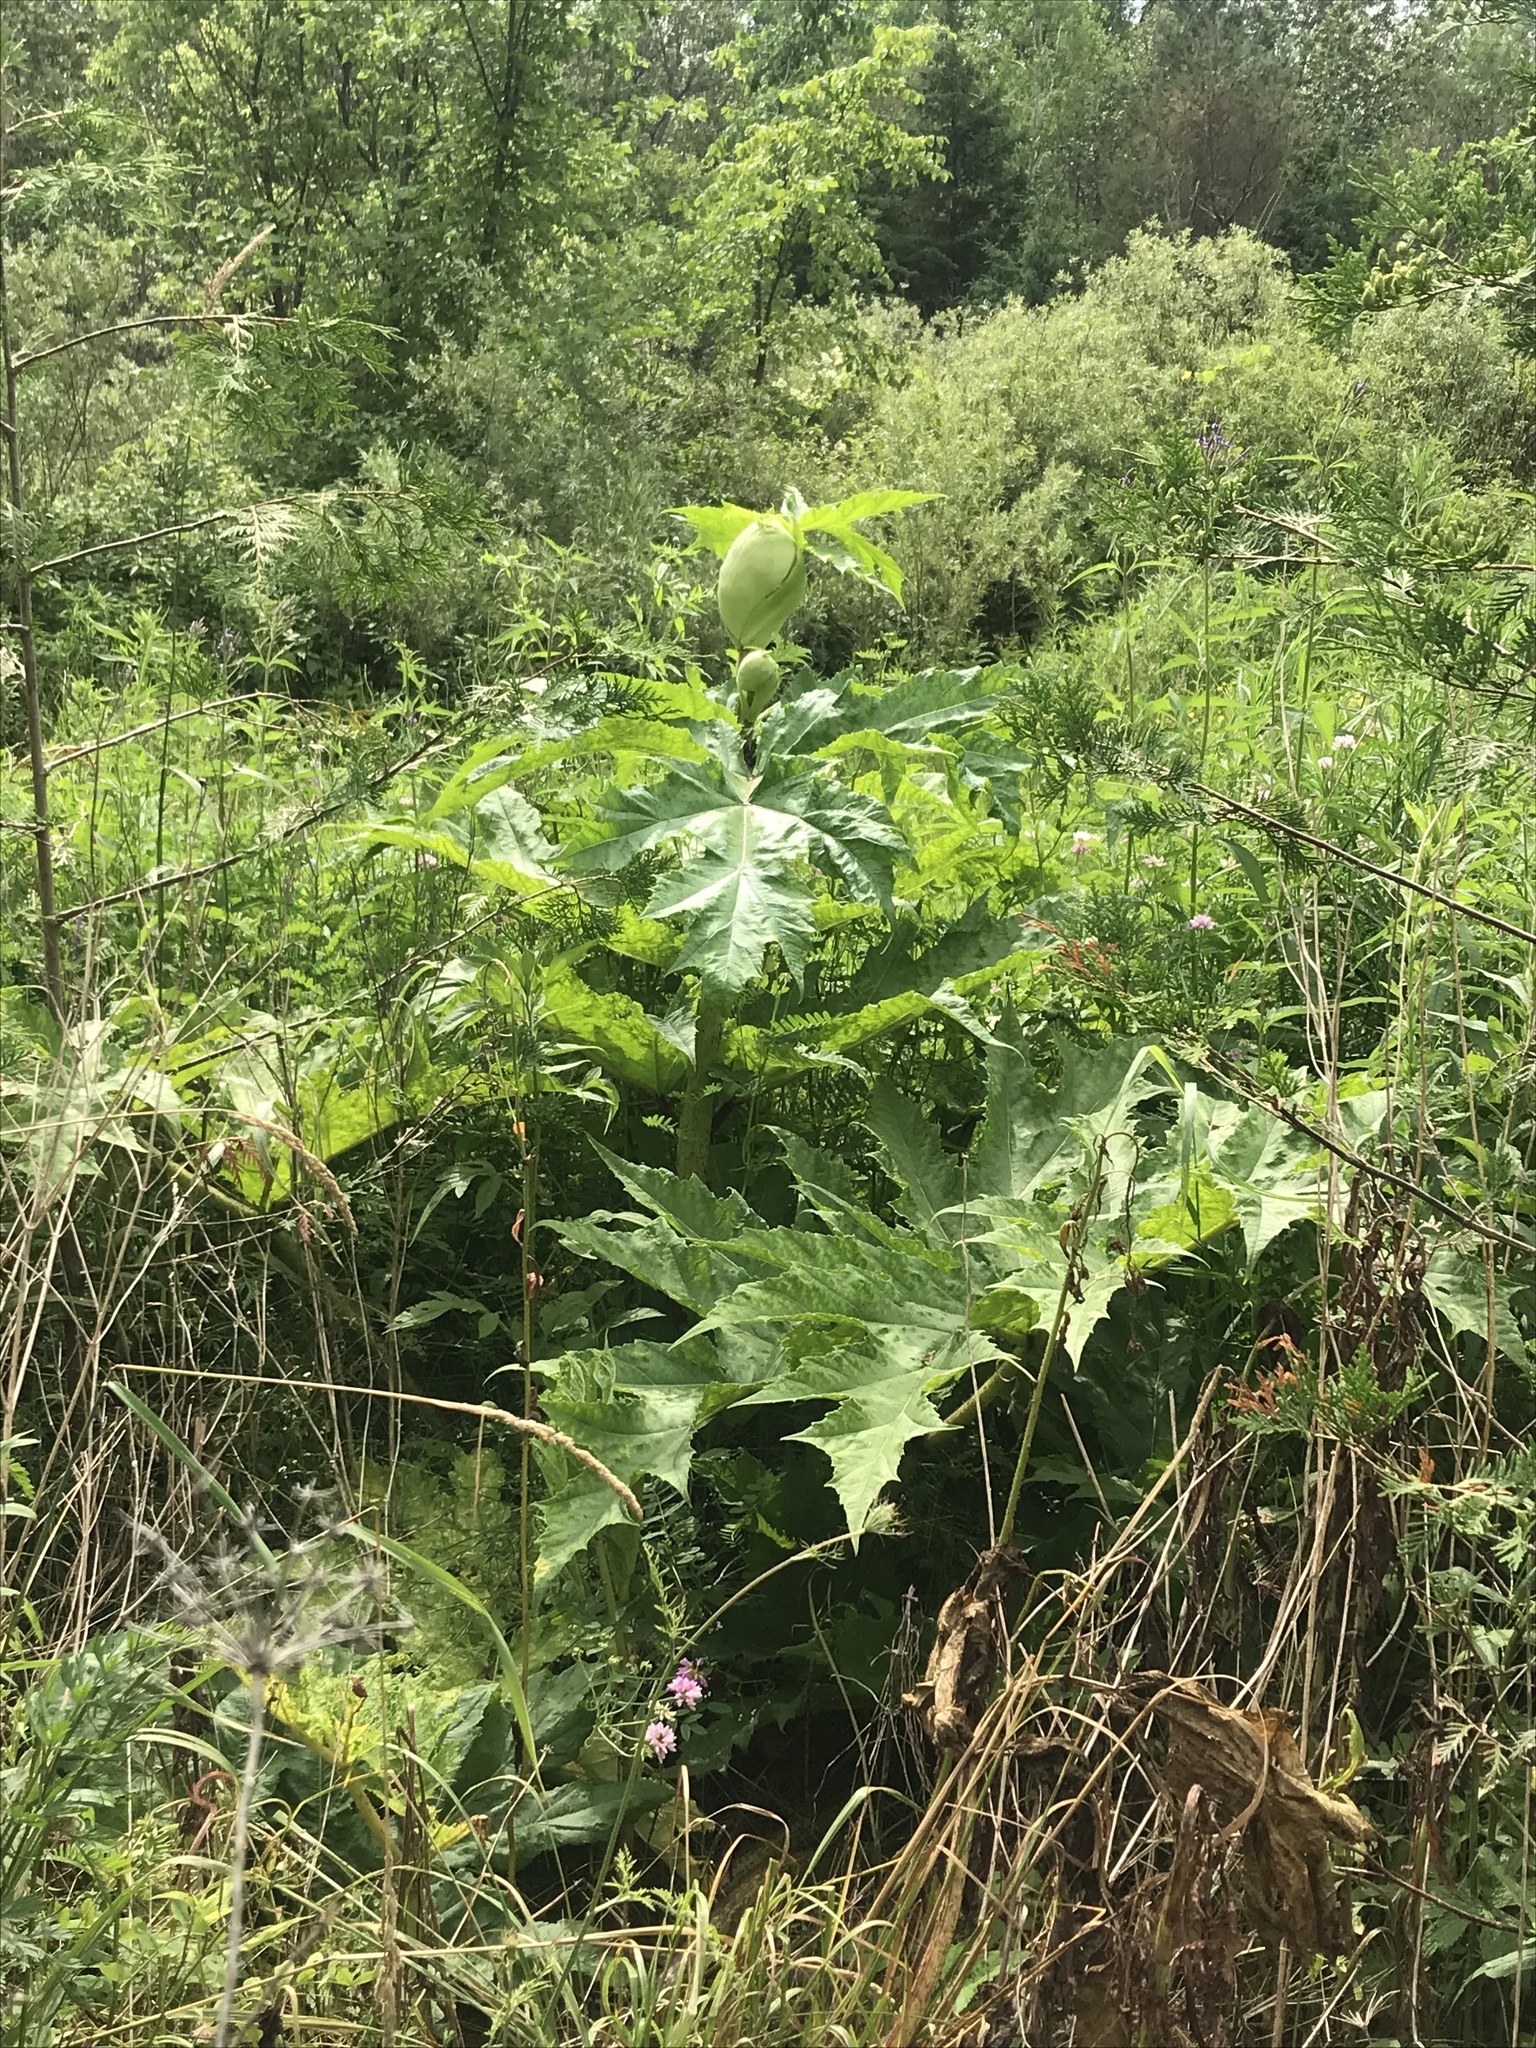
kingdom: Plantae
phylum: Tracheophyta
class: Magnoliopsida
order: Apiales
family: Apiaceae
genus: Heracleum
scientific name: Heracleum mantegazzianum
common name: Giant hogweed
